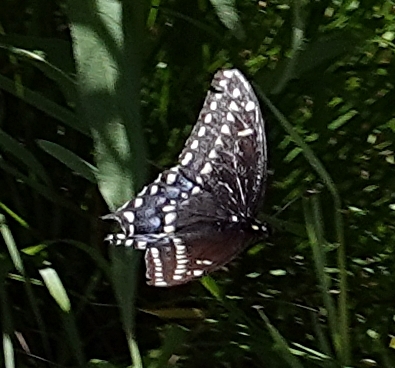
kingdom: Animalia
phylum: Arthropoda
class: Insecta
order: Lepidoptera
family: Papilionidae
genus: Papilio
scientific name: Papilio polyxenes
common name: Black swallowtail
